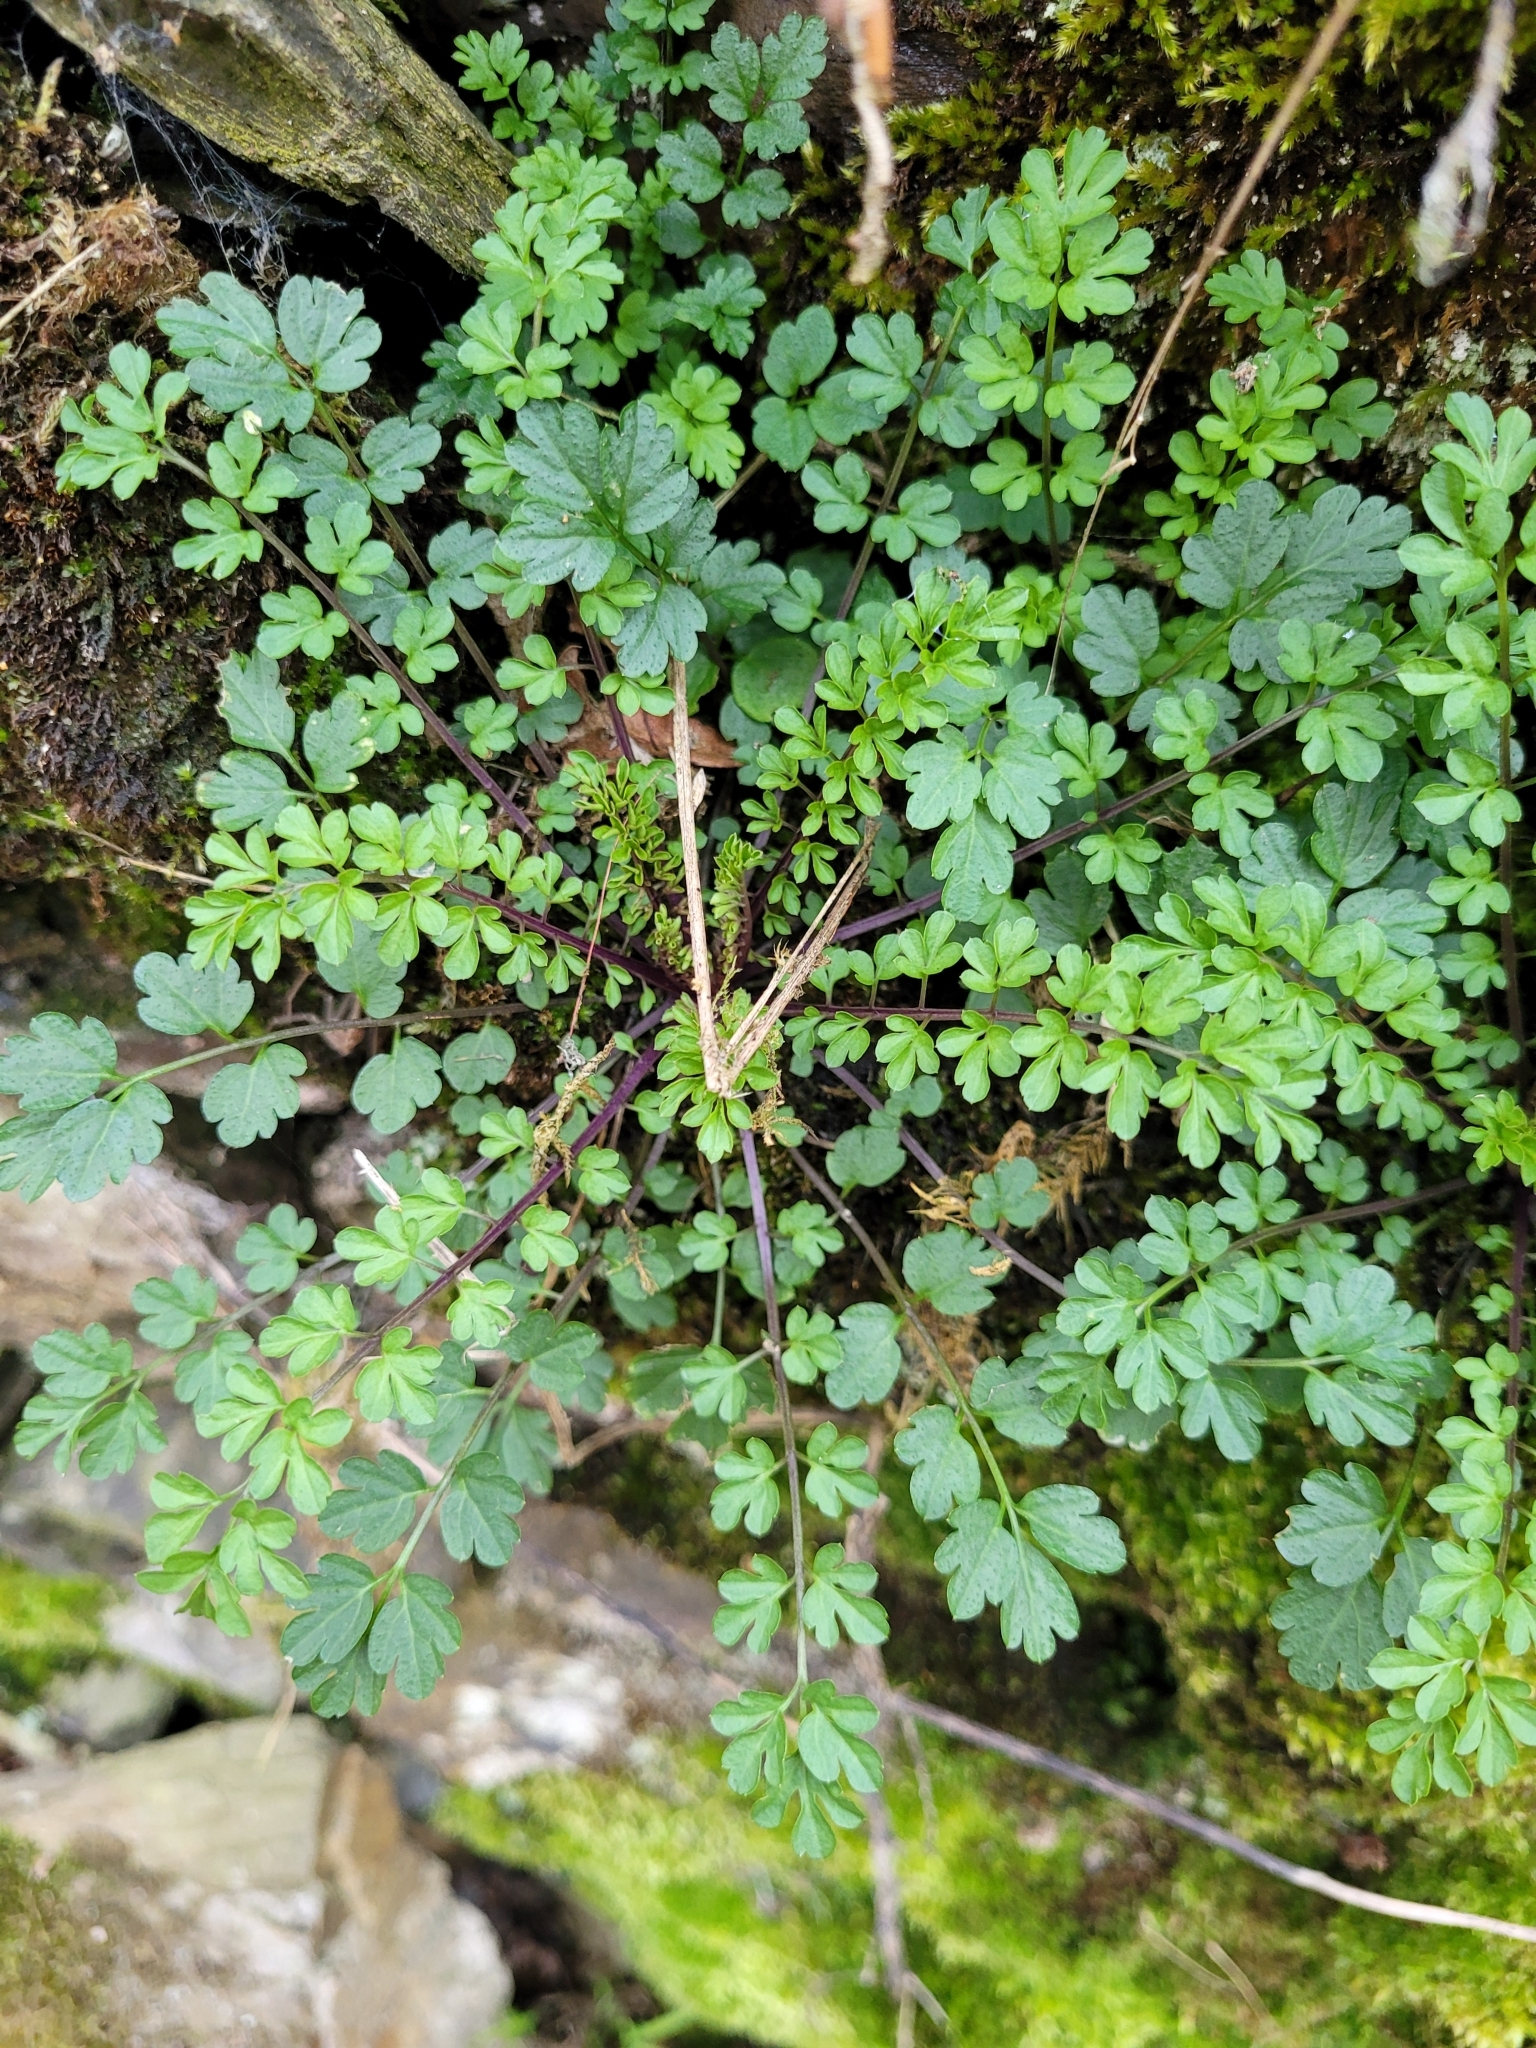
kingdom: Plantae
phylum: Tracheophyta
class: Magnoliopsida
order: Brassicales
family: Brassicaceae
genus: Cardamine
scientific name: Cardamine impatiens
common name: Narrow-leaved bitter-cress
